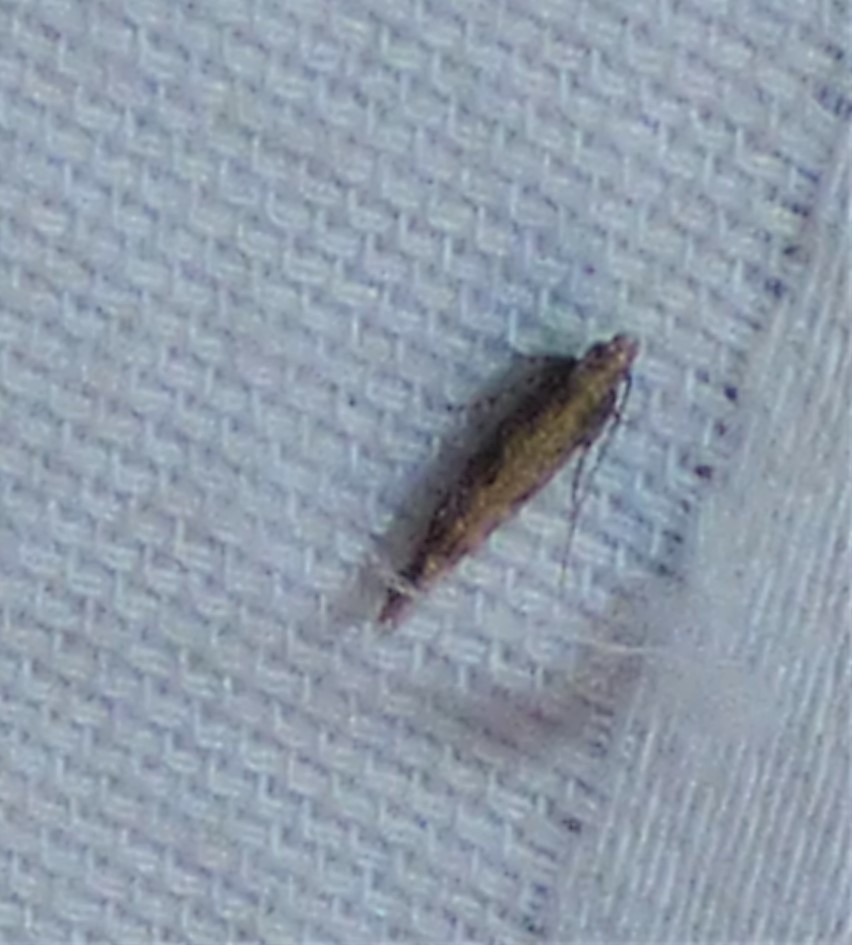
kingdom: Animalia
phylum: Arthropoda
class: Insecta
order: Lepidoptera
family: Plutellidae
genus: Plutella
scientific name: Plutella xylostella
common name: Diamond-back moth
